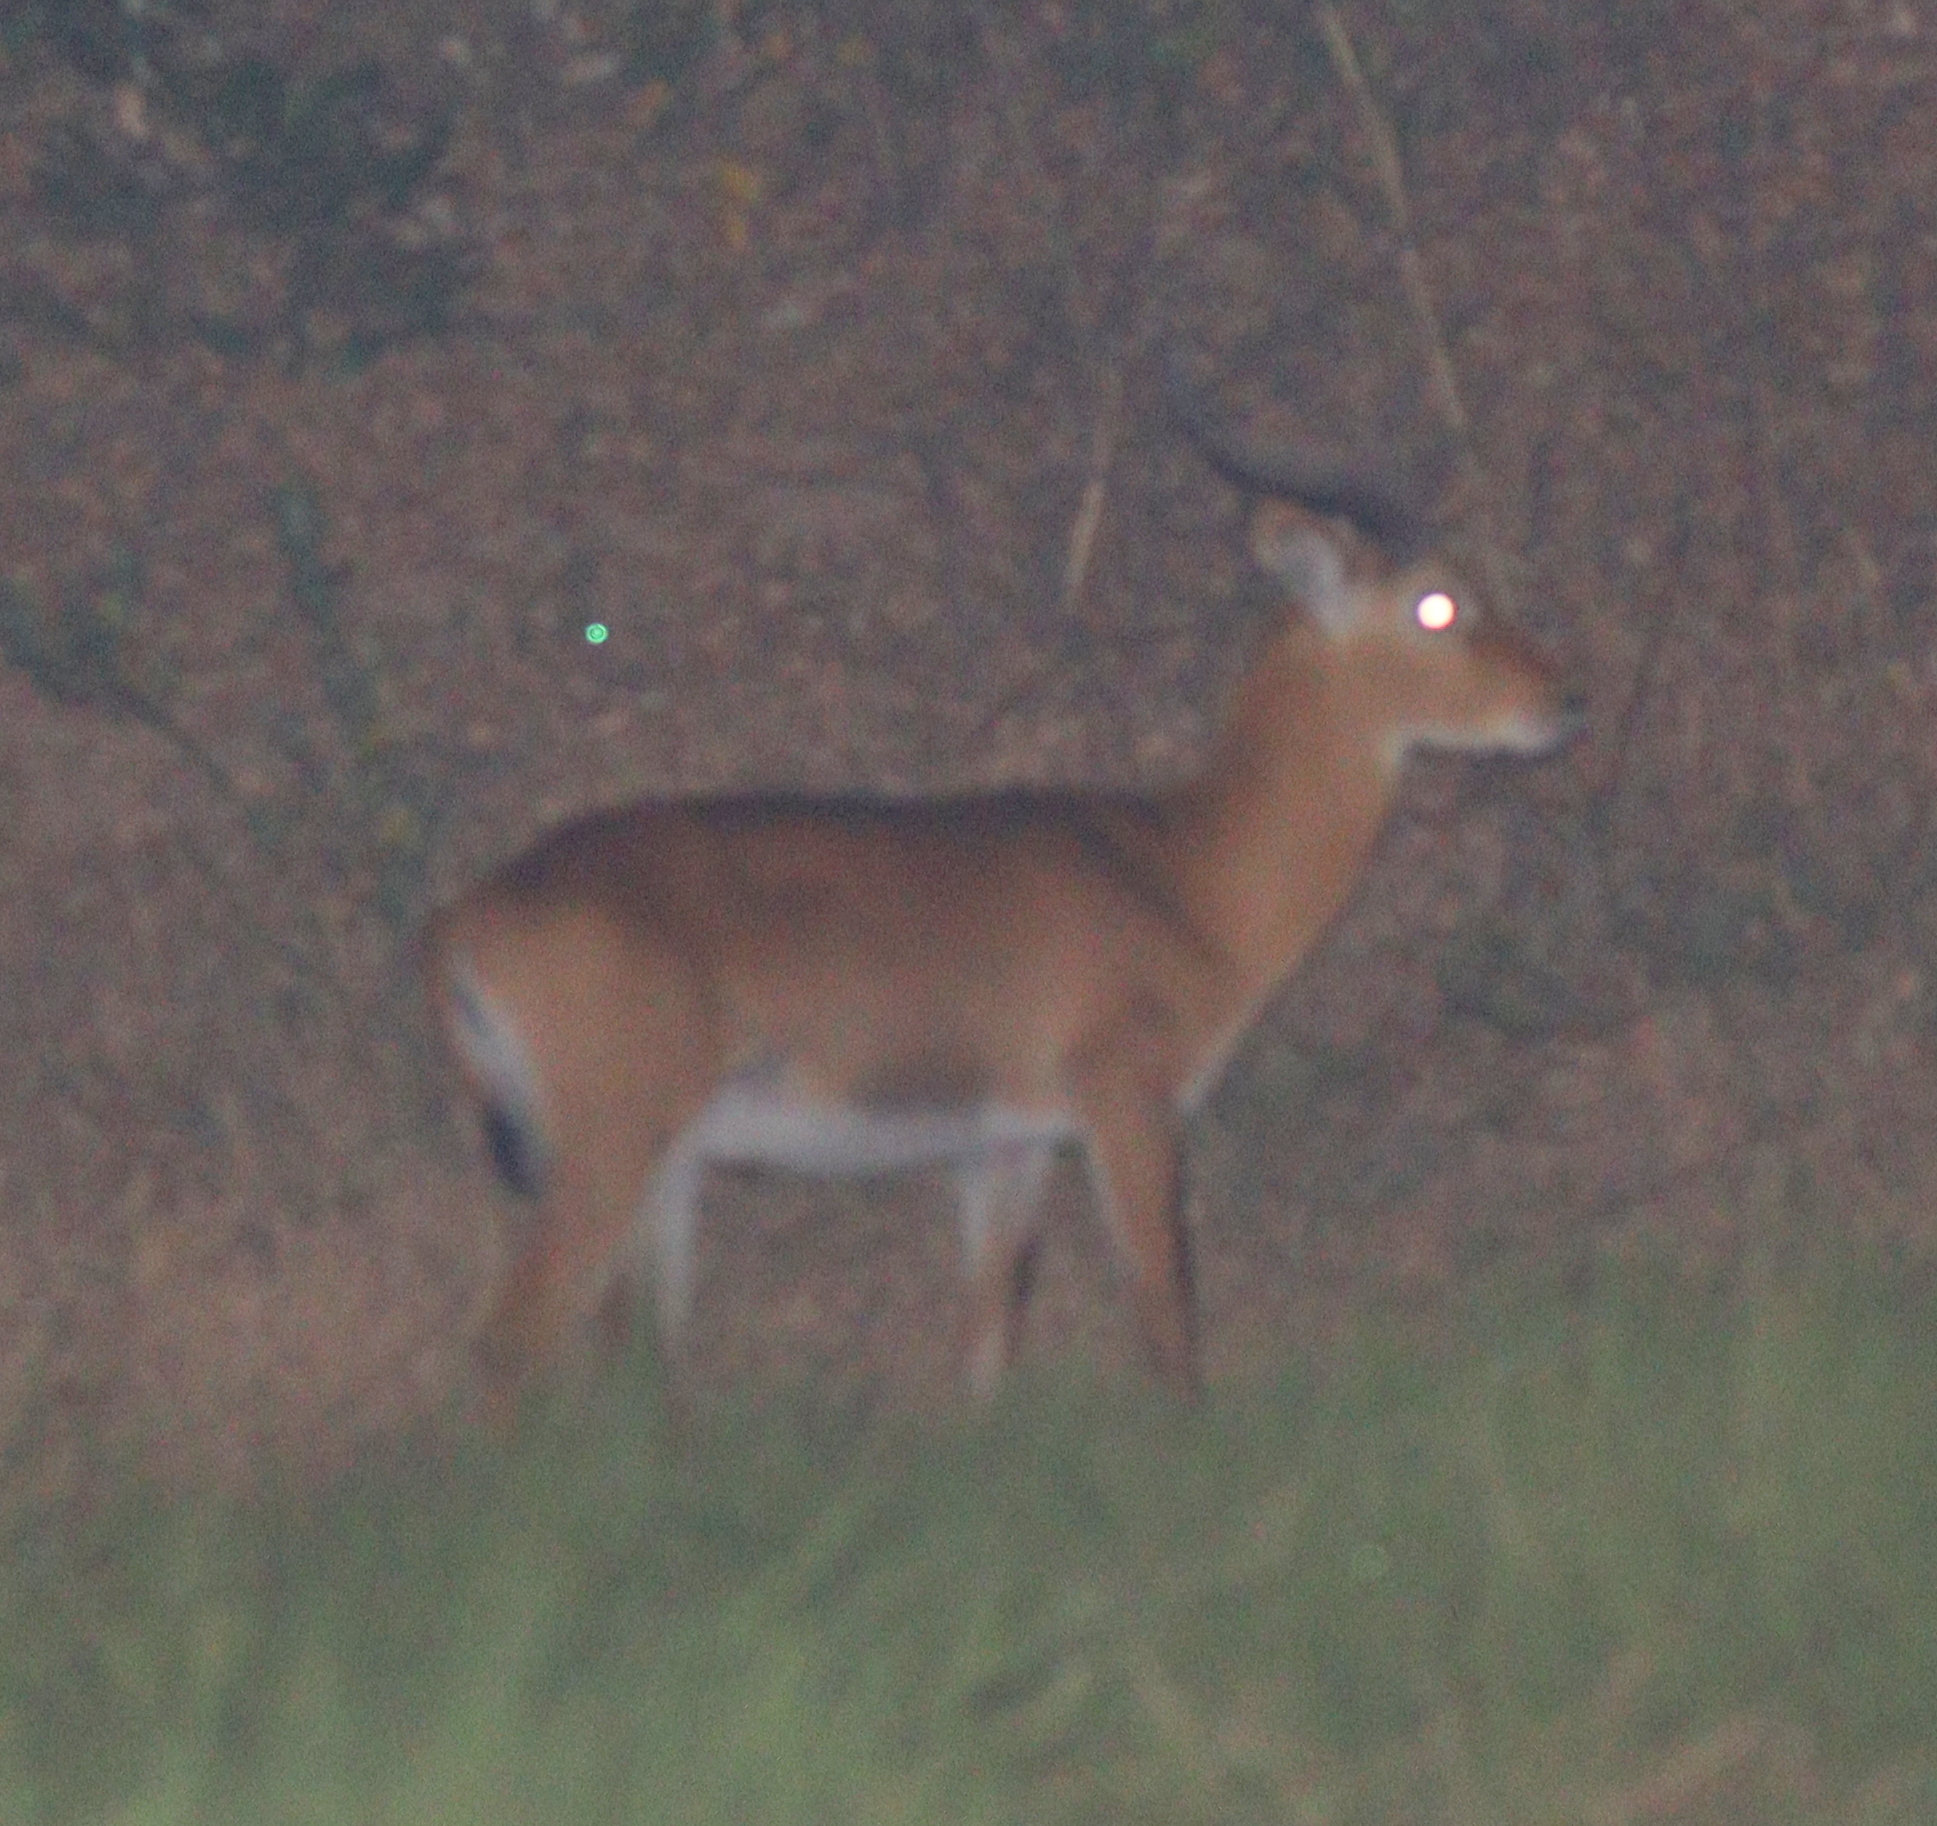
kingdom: Animalia
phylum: Chordata
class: Mammalia
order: Artiodactyla
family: Bovidae
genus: Kobus
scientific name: Kobus kob
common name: Kob
